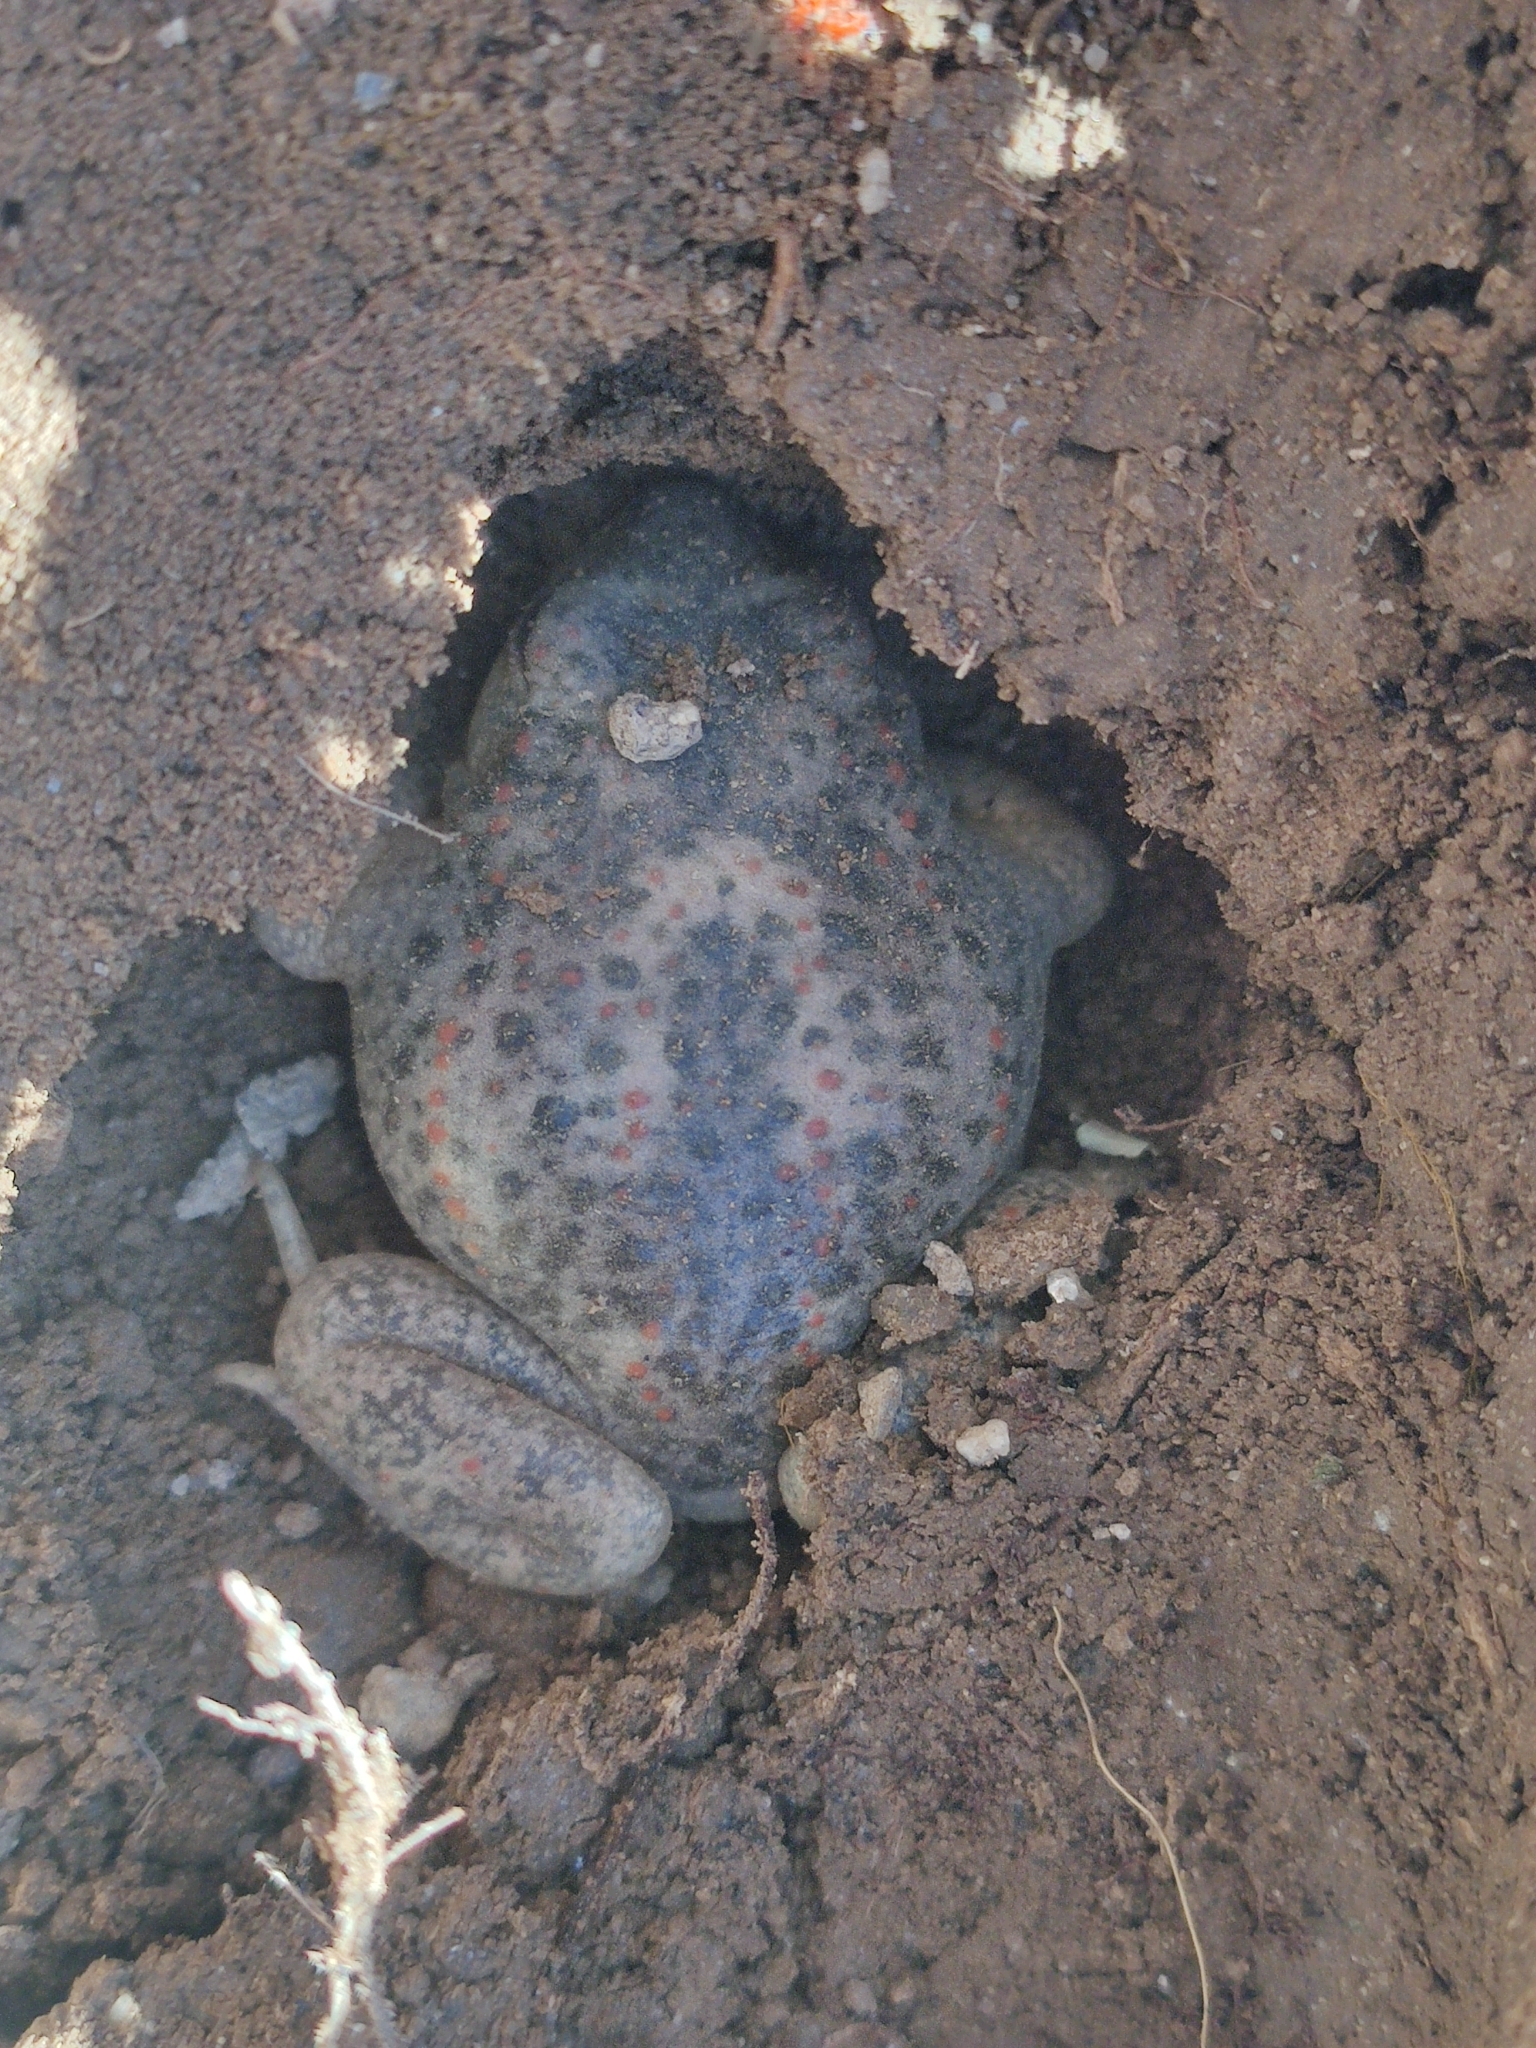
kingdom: Animalia
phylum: Chordata
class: Amphibia
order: Anura
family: Alytidae
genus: Alytes
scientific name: Alytes obstetricans
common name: Midwife toad
